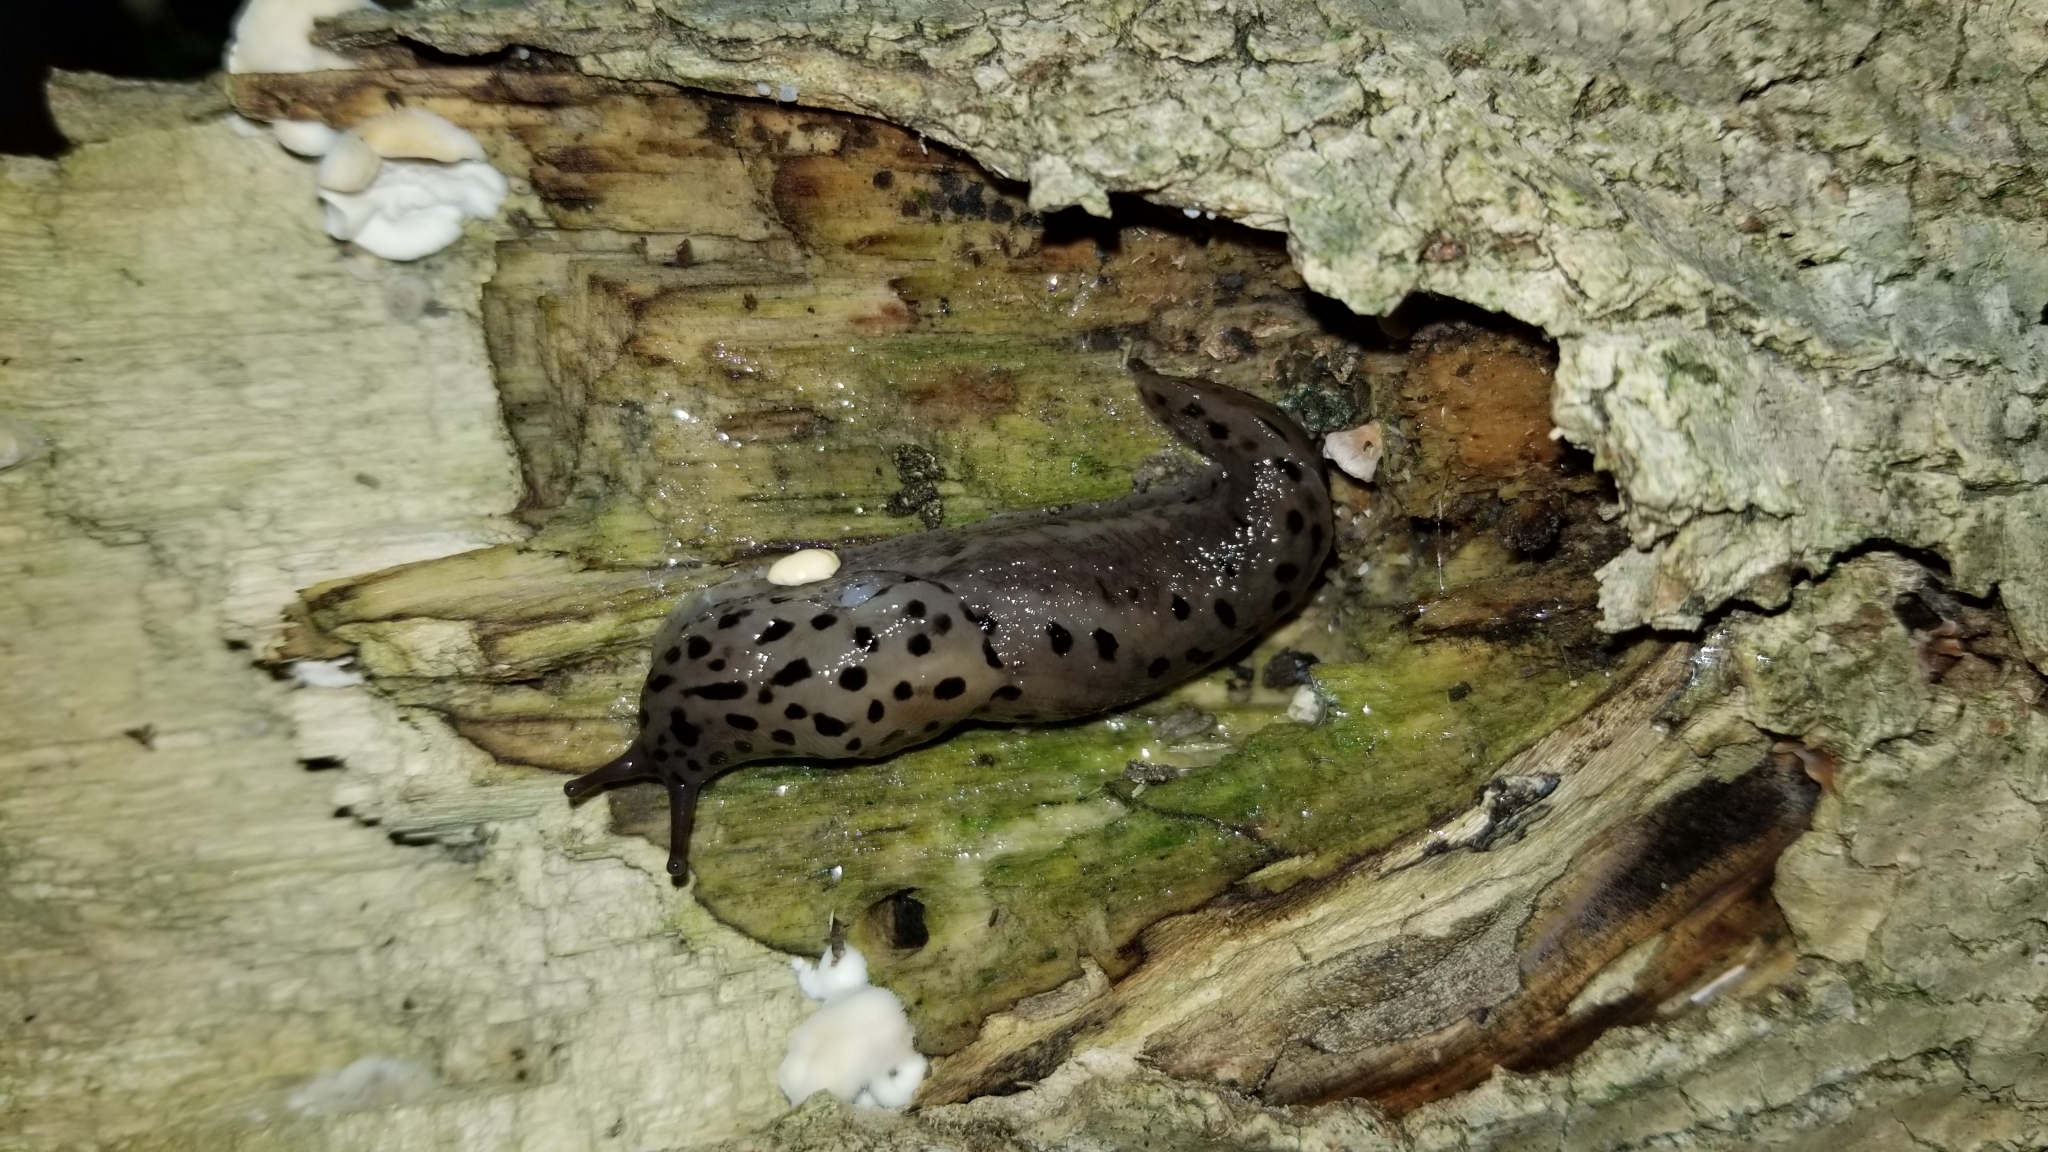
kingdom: Animalia
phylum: Mollusca
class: Gastropoda
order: Stylommatophora
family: Limacidae
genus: Limax
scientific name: Limax maximus
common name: Great grey slug
